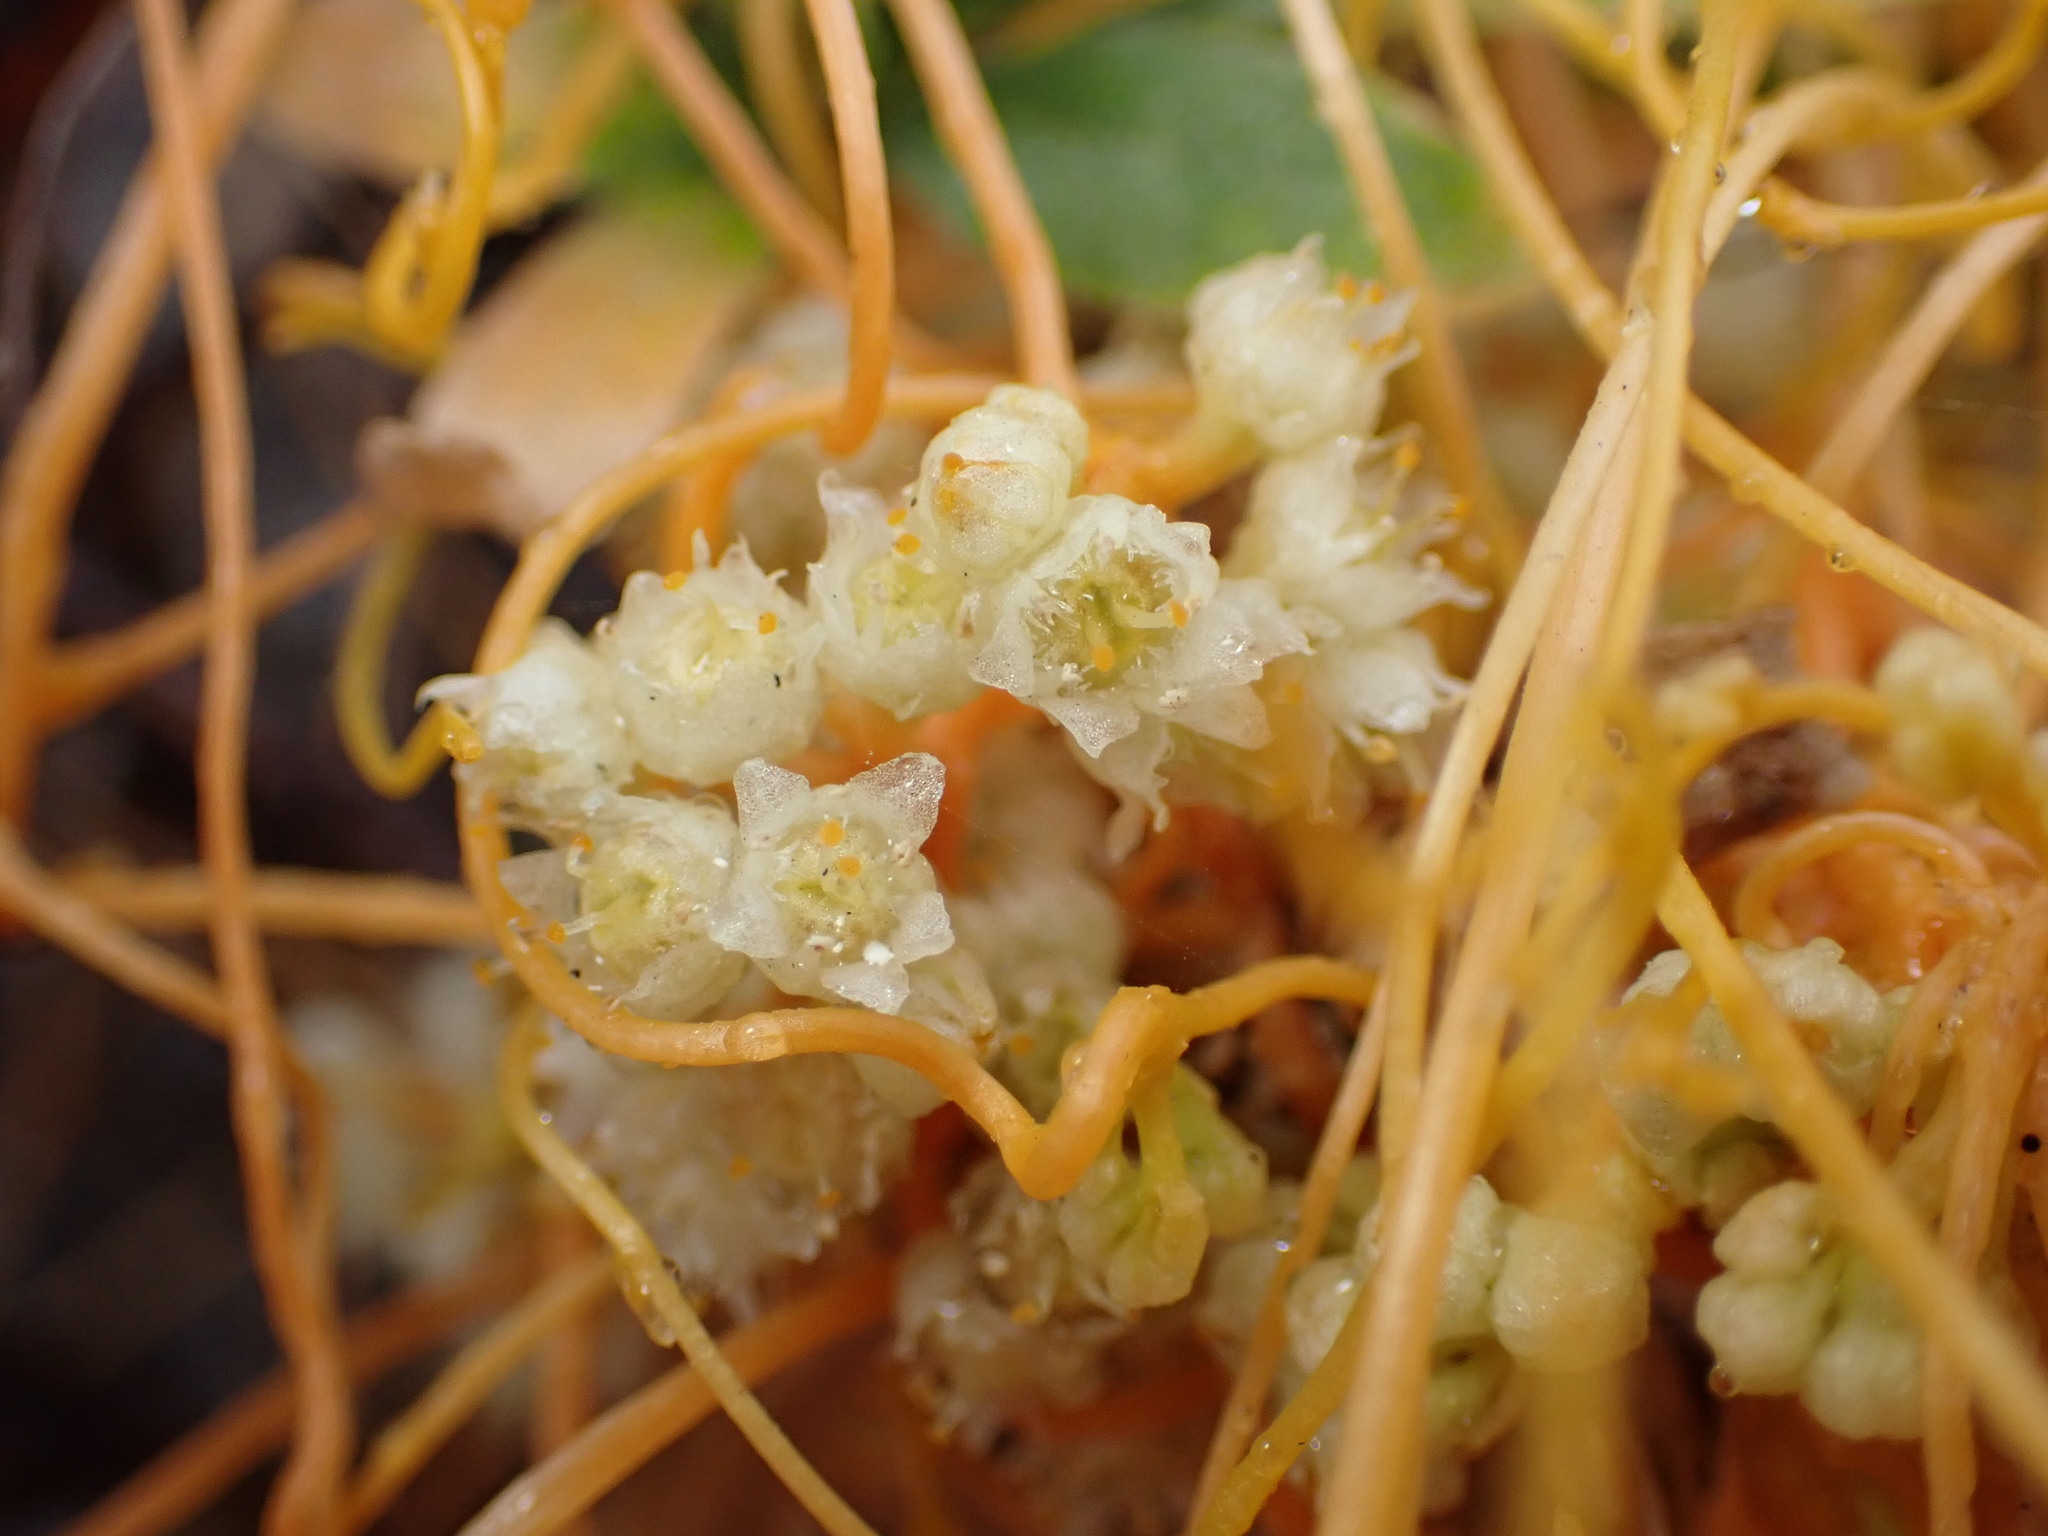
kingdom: Plantae
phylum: Tracheophyta
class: Magnoliopsida
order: Solanales
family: Convolvulaceae
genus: Cuscuta
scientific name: Cuscuta campestris
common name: Yellow dodder
